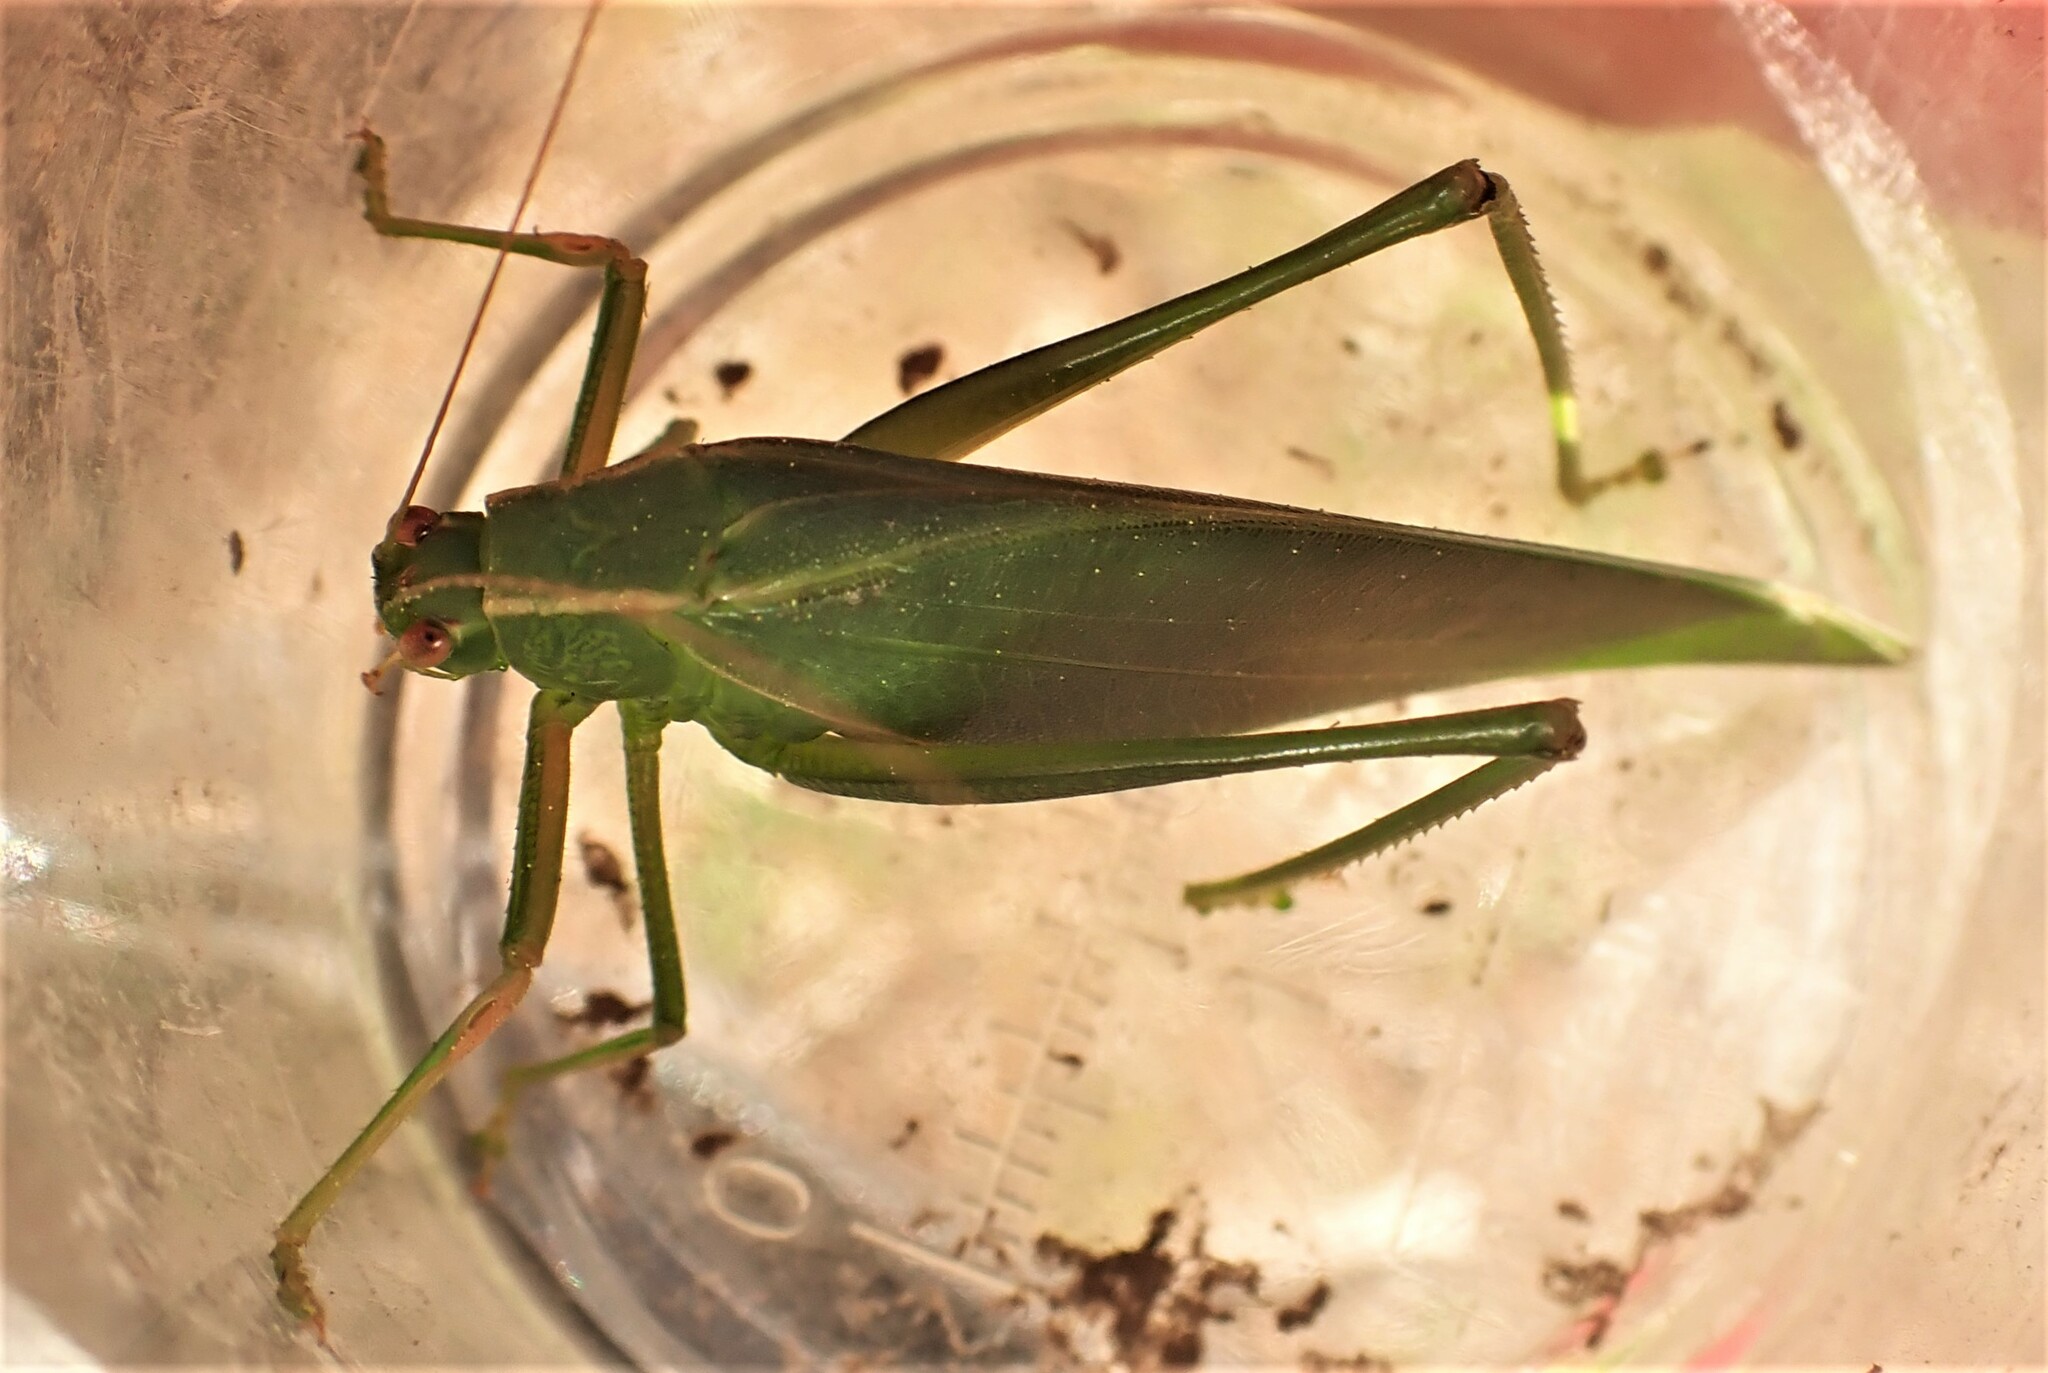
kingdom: Animalia
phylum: Arthropoda
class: Insecta
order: Orthoptera
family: Tettigoniidae
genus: Caedicia
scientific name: Caedicia simplex
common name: Common garden katydid
